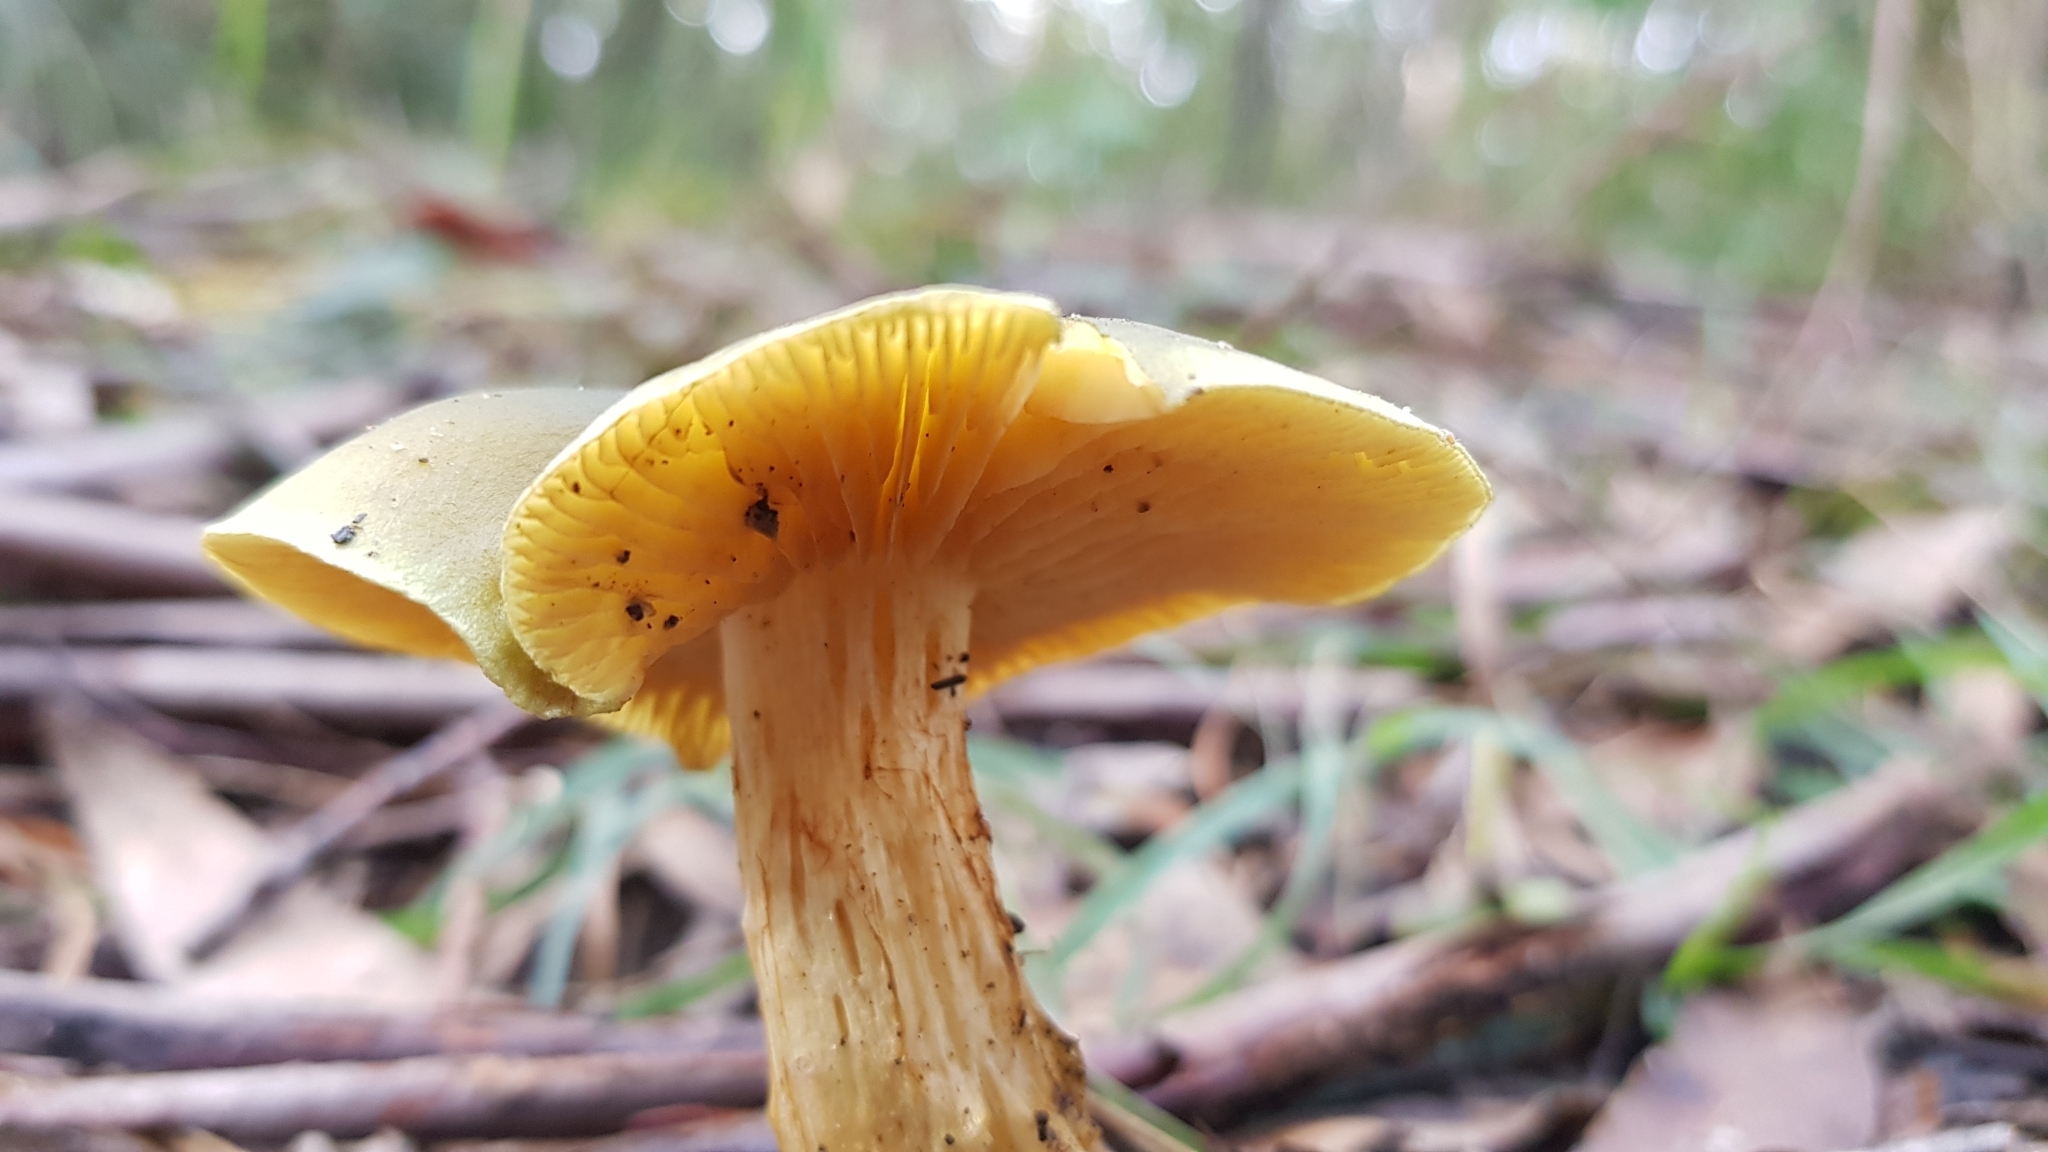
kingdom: Fungi
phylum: Basidiomycota
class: Agaricomycetes
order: Agaricales
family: Cortinariaceae
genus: Cortinarius
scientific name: Cortinarius austrovenetus
